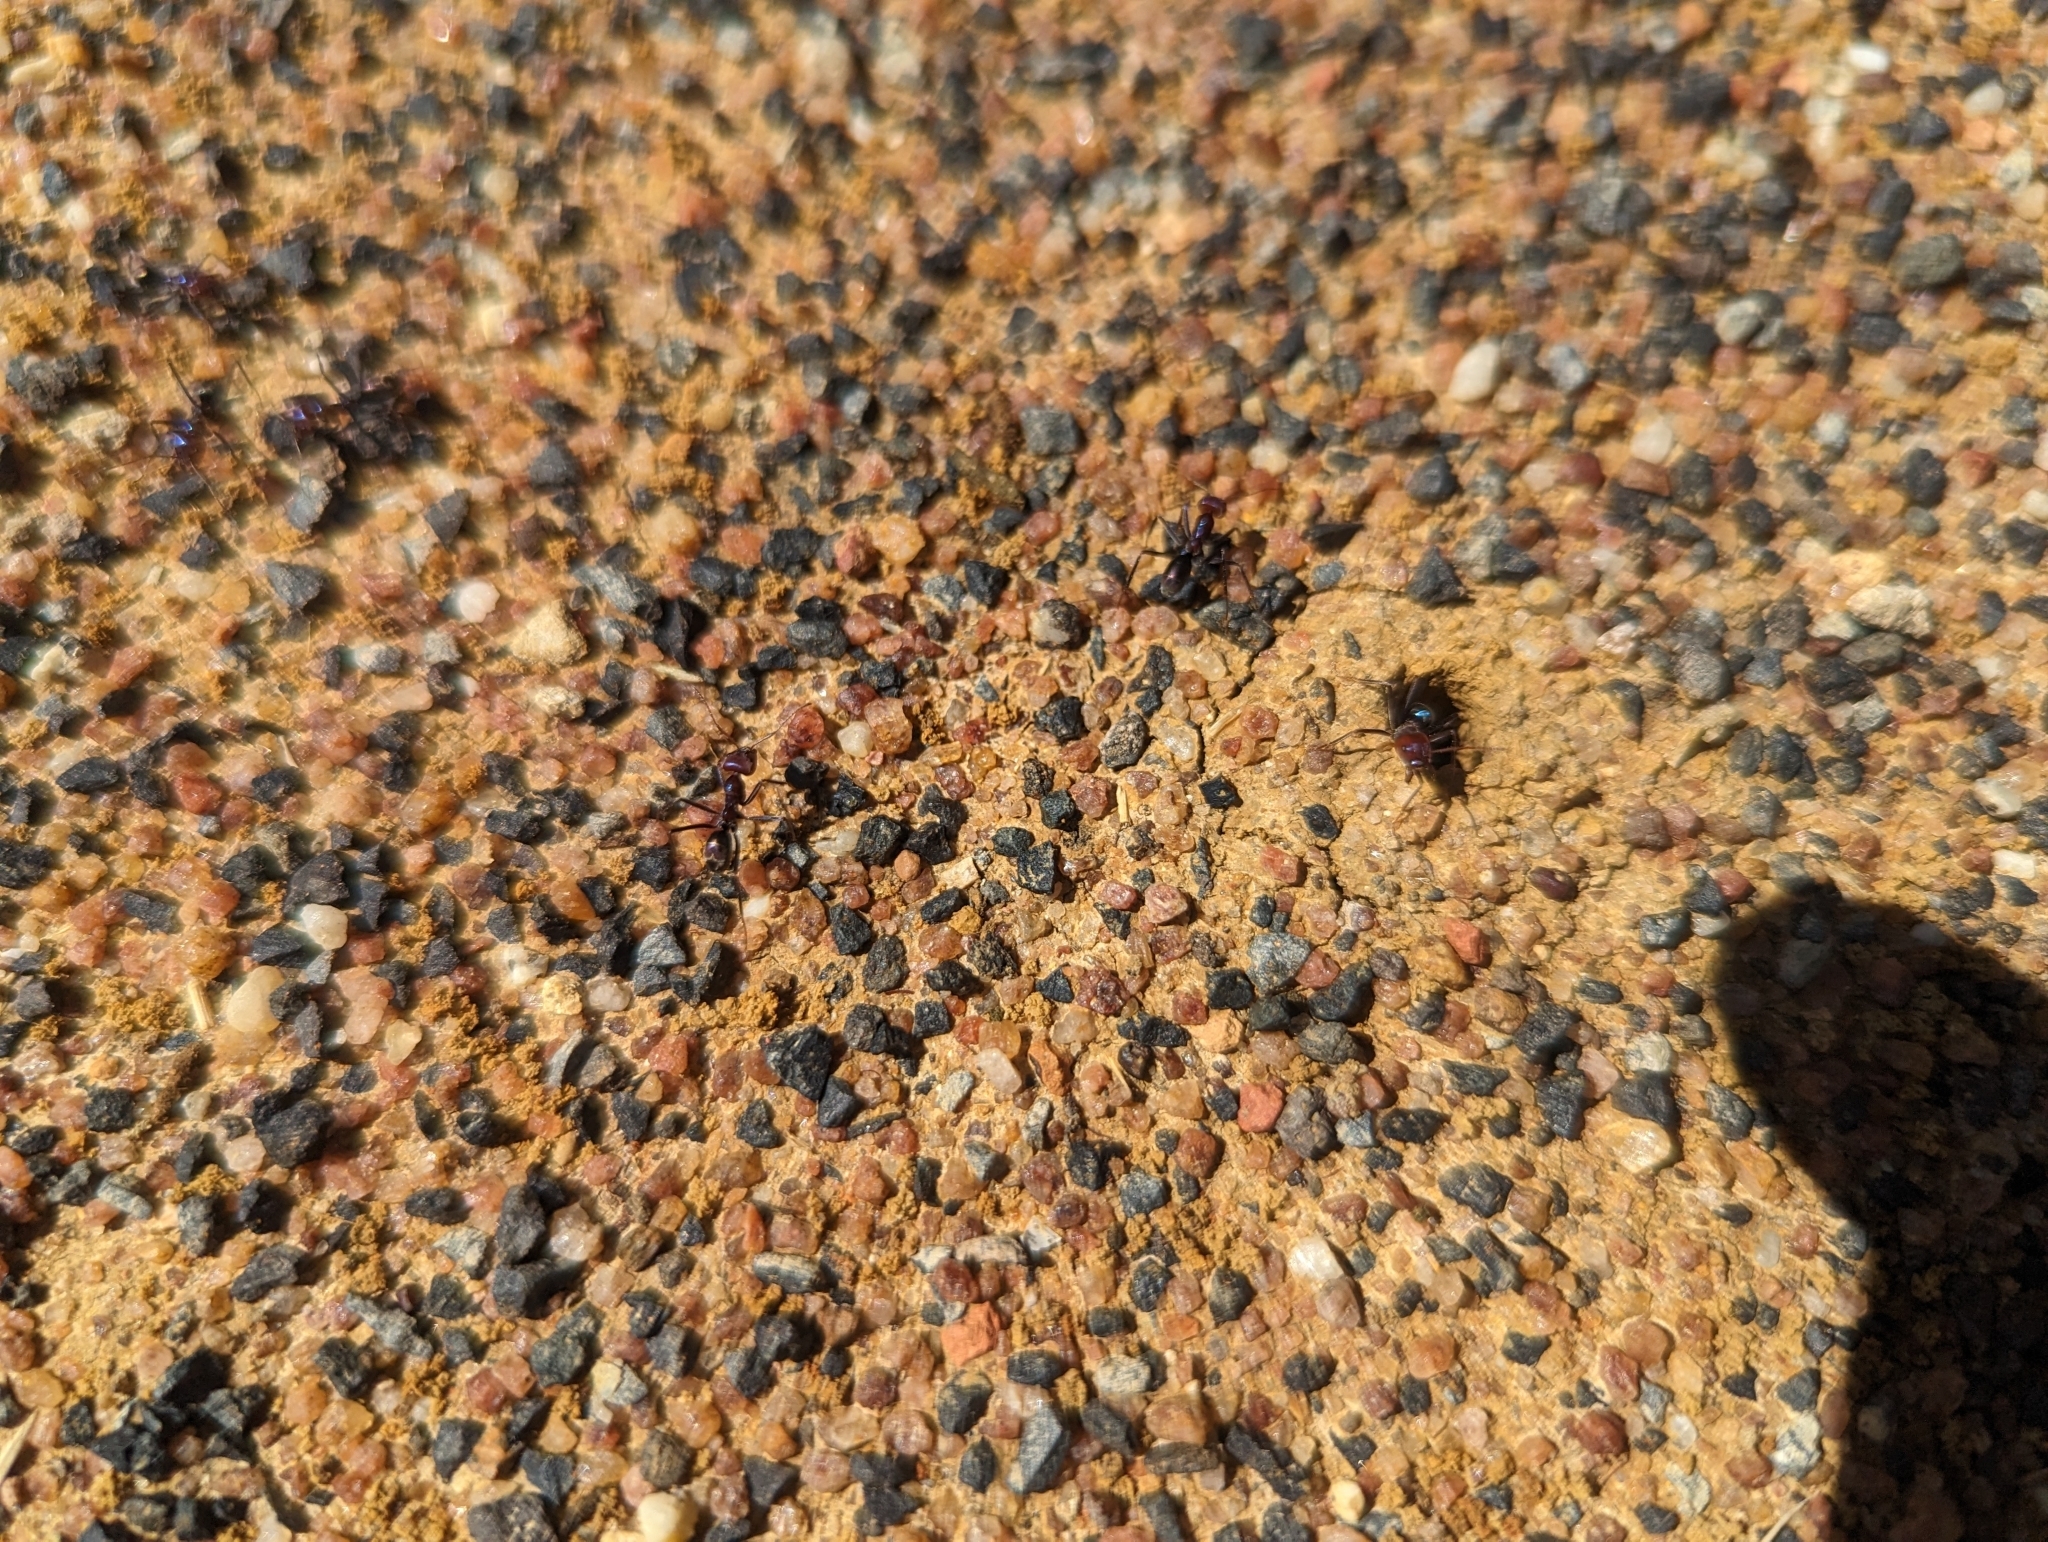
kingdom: Animalia
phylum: Arthropoda
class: Insecta
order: Hymenoptera
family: Formicidae
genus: Iridomyrmex
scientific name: Iridomyrmex purpureus
